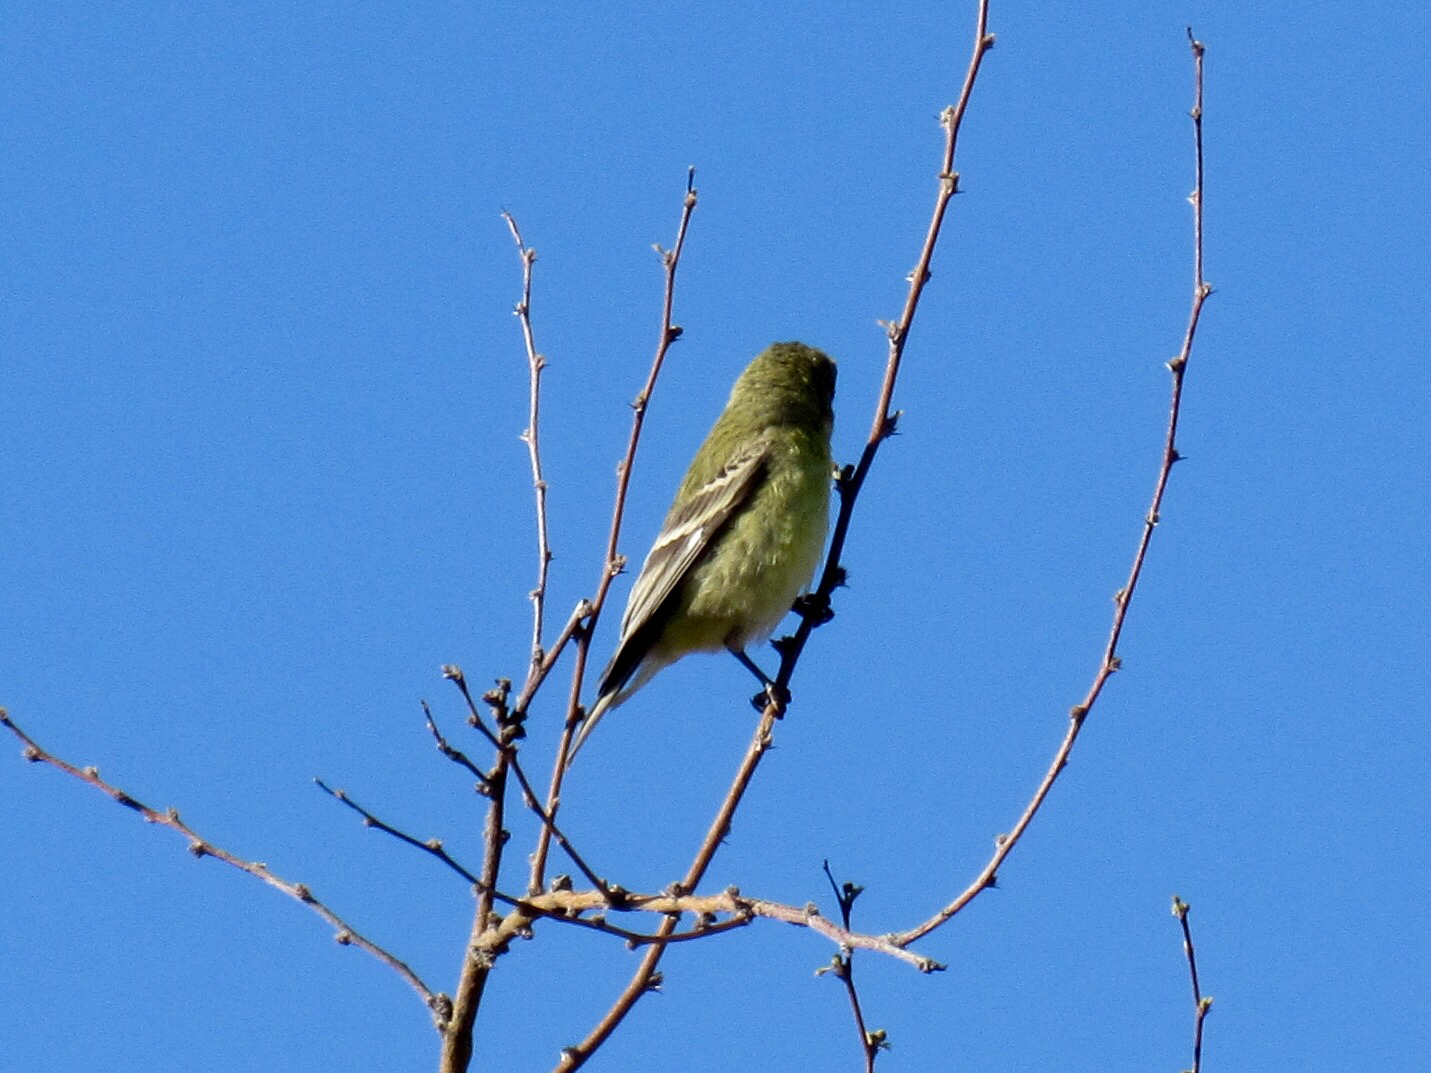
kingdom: Animalia
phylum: Chordata
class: Aves
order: Passeriformes
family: Fringillidae
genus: Spinus
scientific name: Spinus psaltria
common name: Lesser goldfinch
